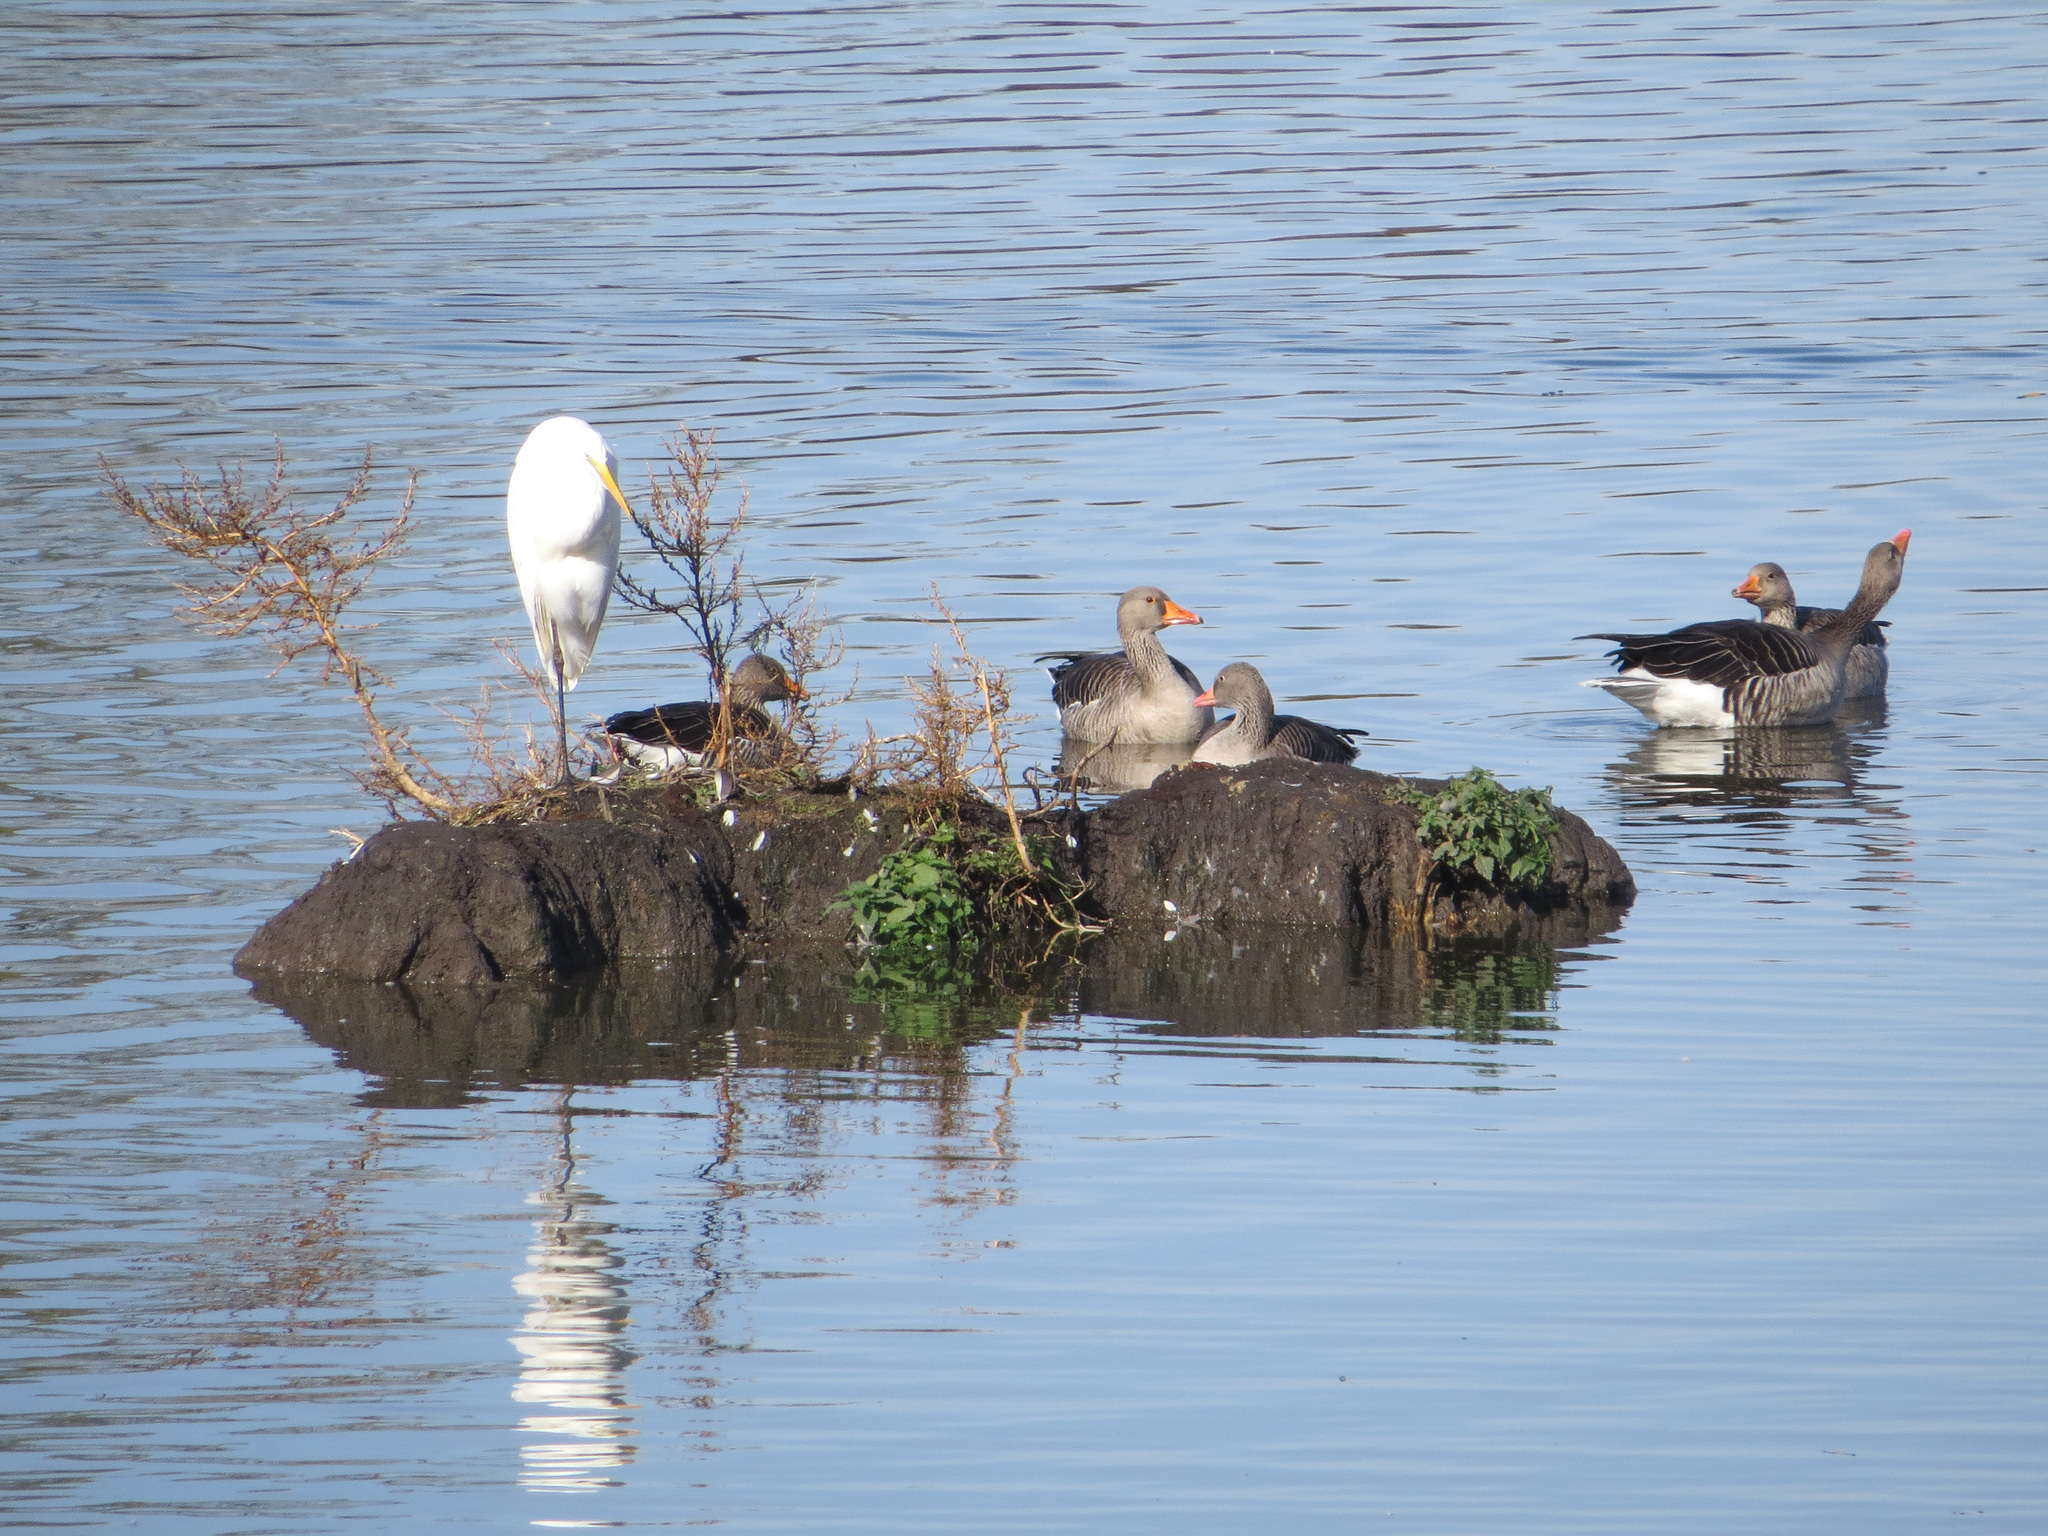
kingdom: Animalia
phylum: Chordata
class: Aves
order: Pelecaniformes
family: Ardeidae
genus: Ardea
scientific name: Ardea alba
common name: Great egret
